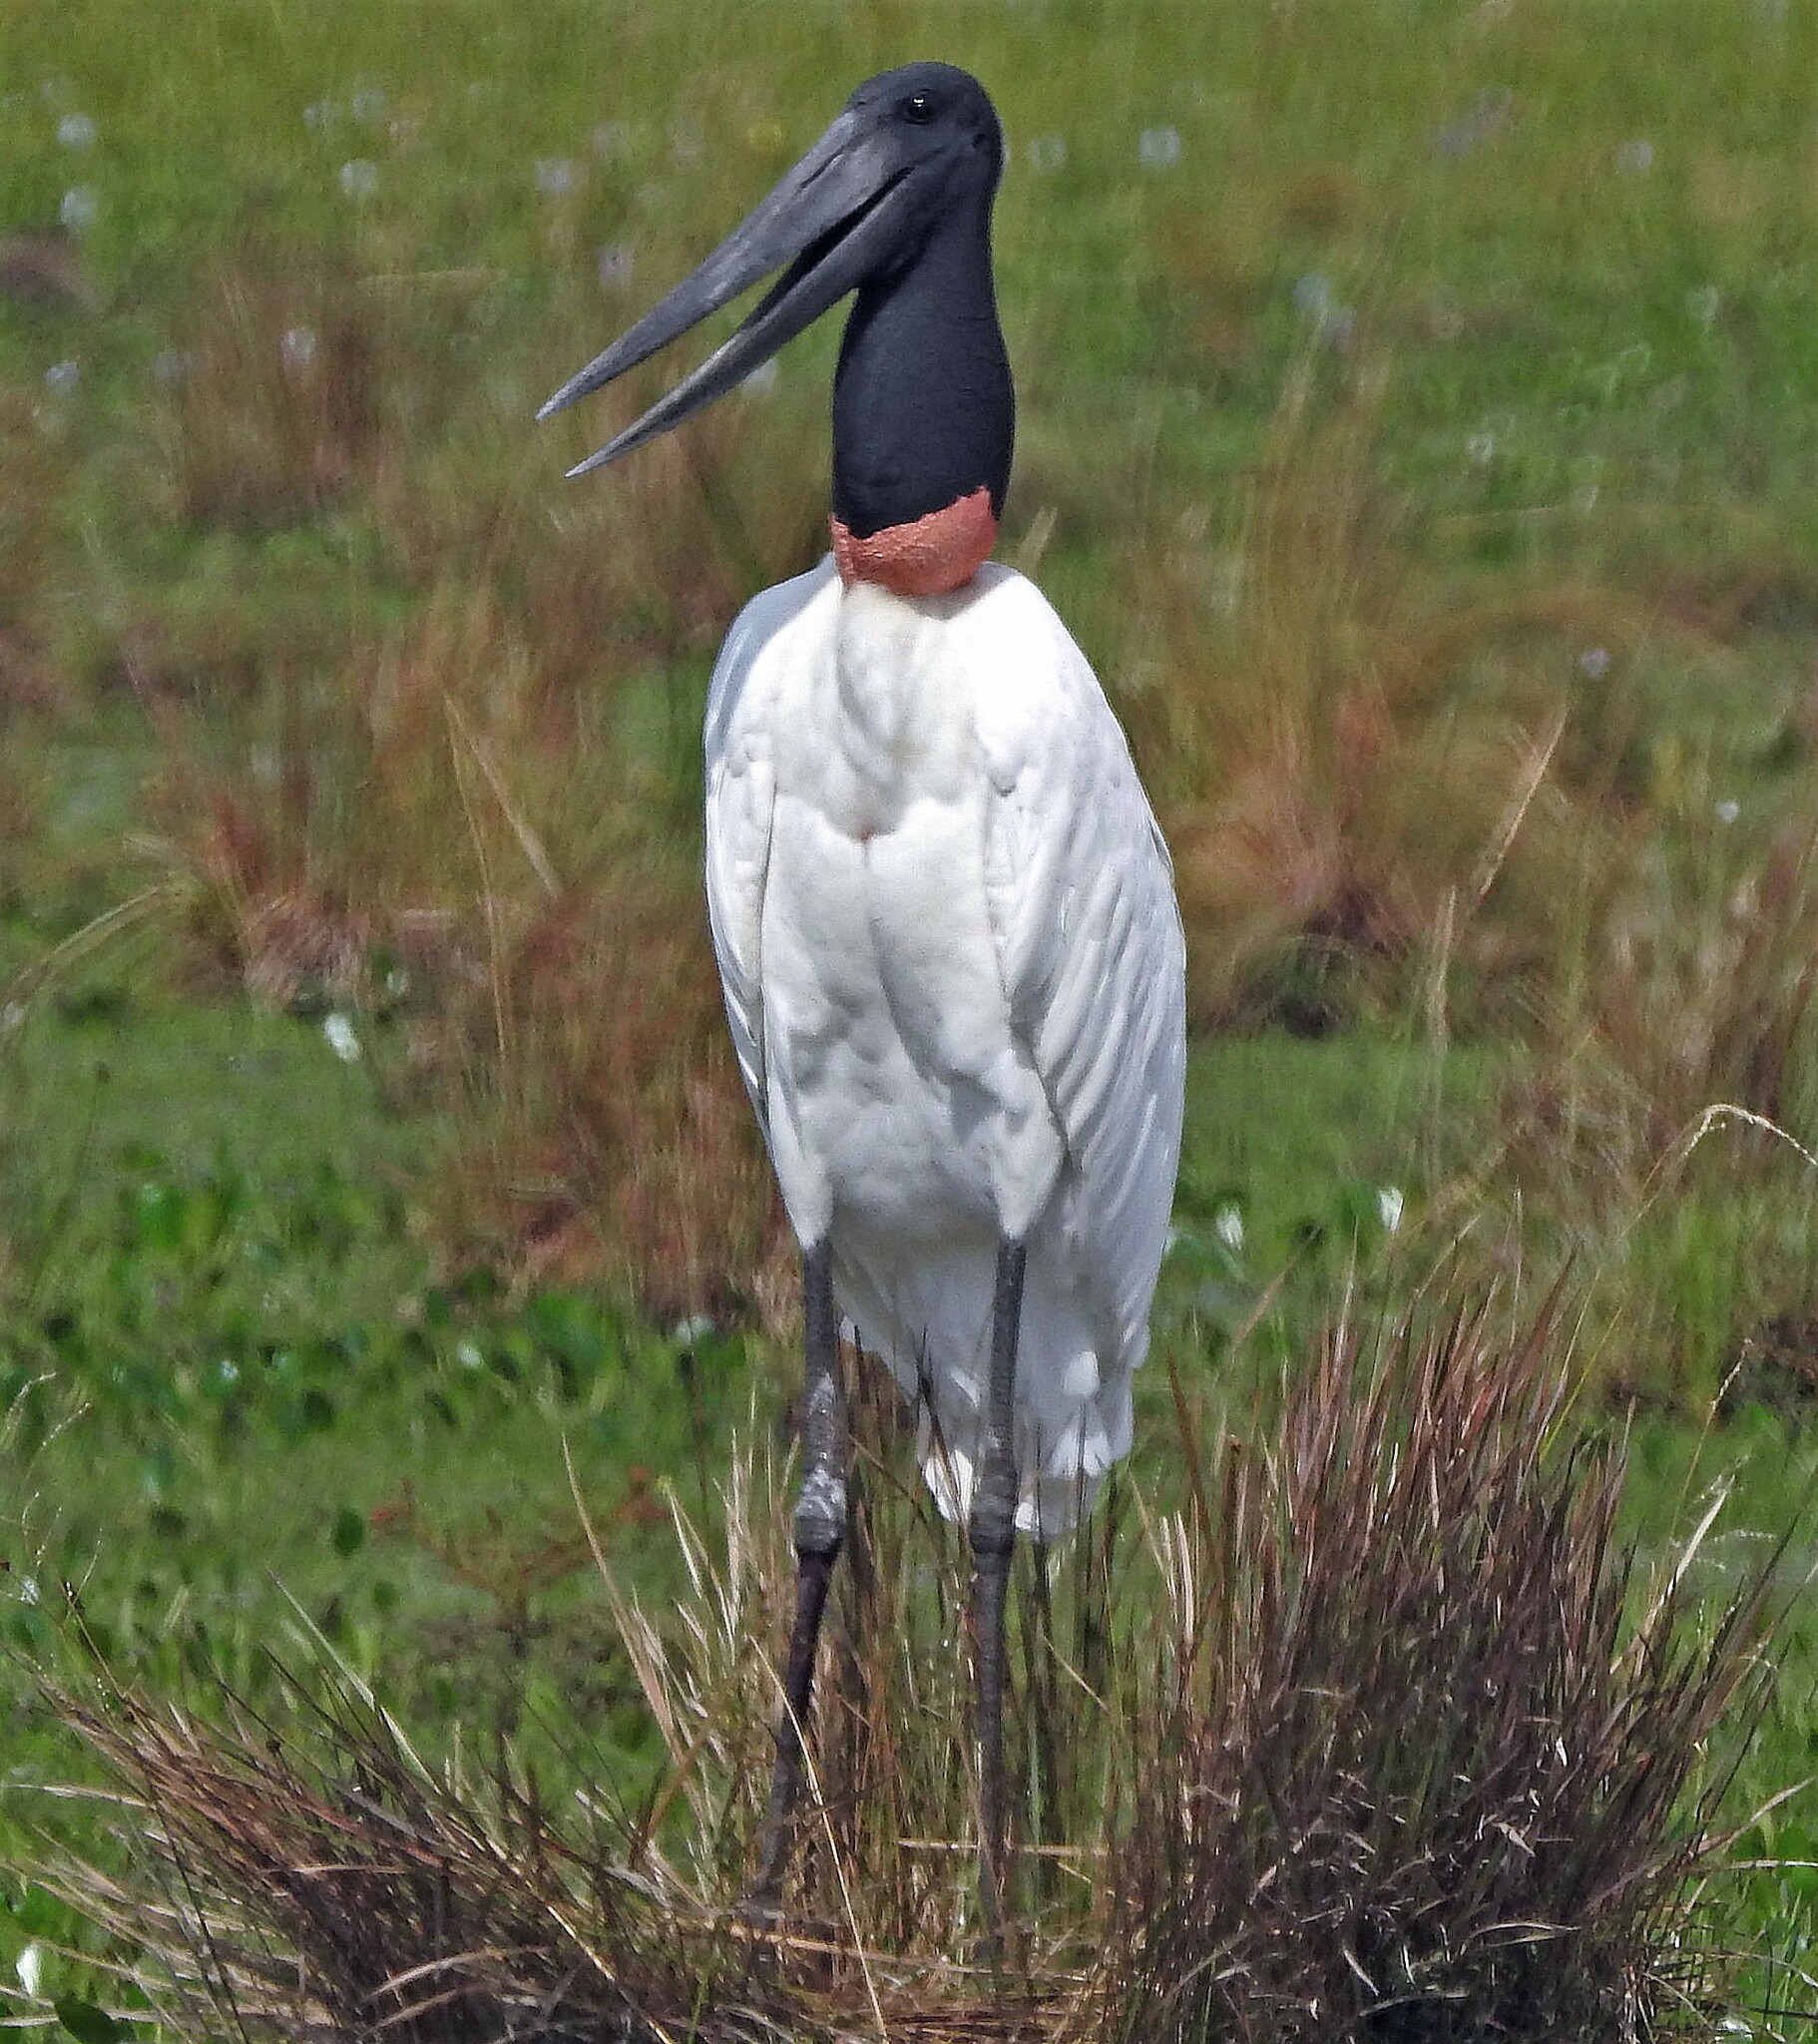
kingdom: Animalia
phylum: Chordata
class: Aves
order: Ciconiiformes
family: Ciconiidae
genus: Jabiru
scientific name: Jabiru mycteria
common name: Jabiru
